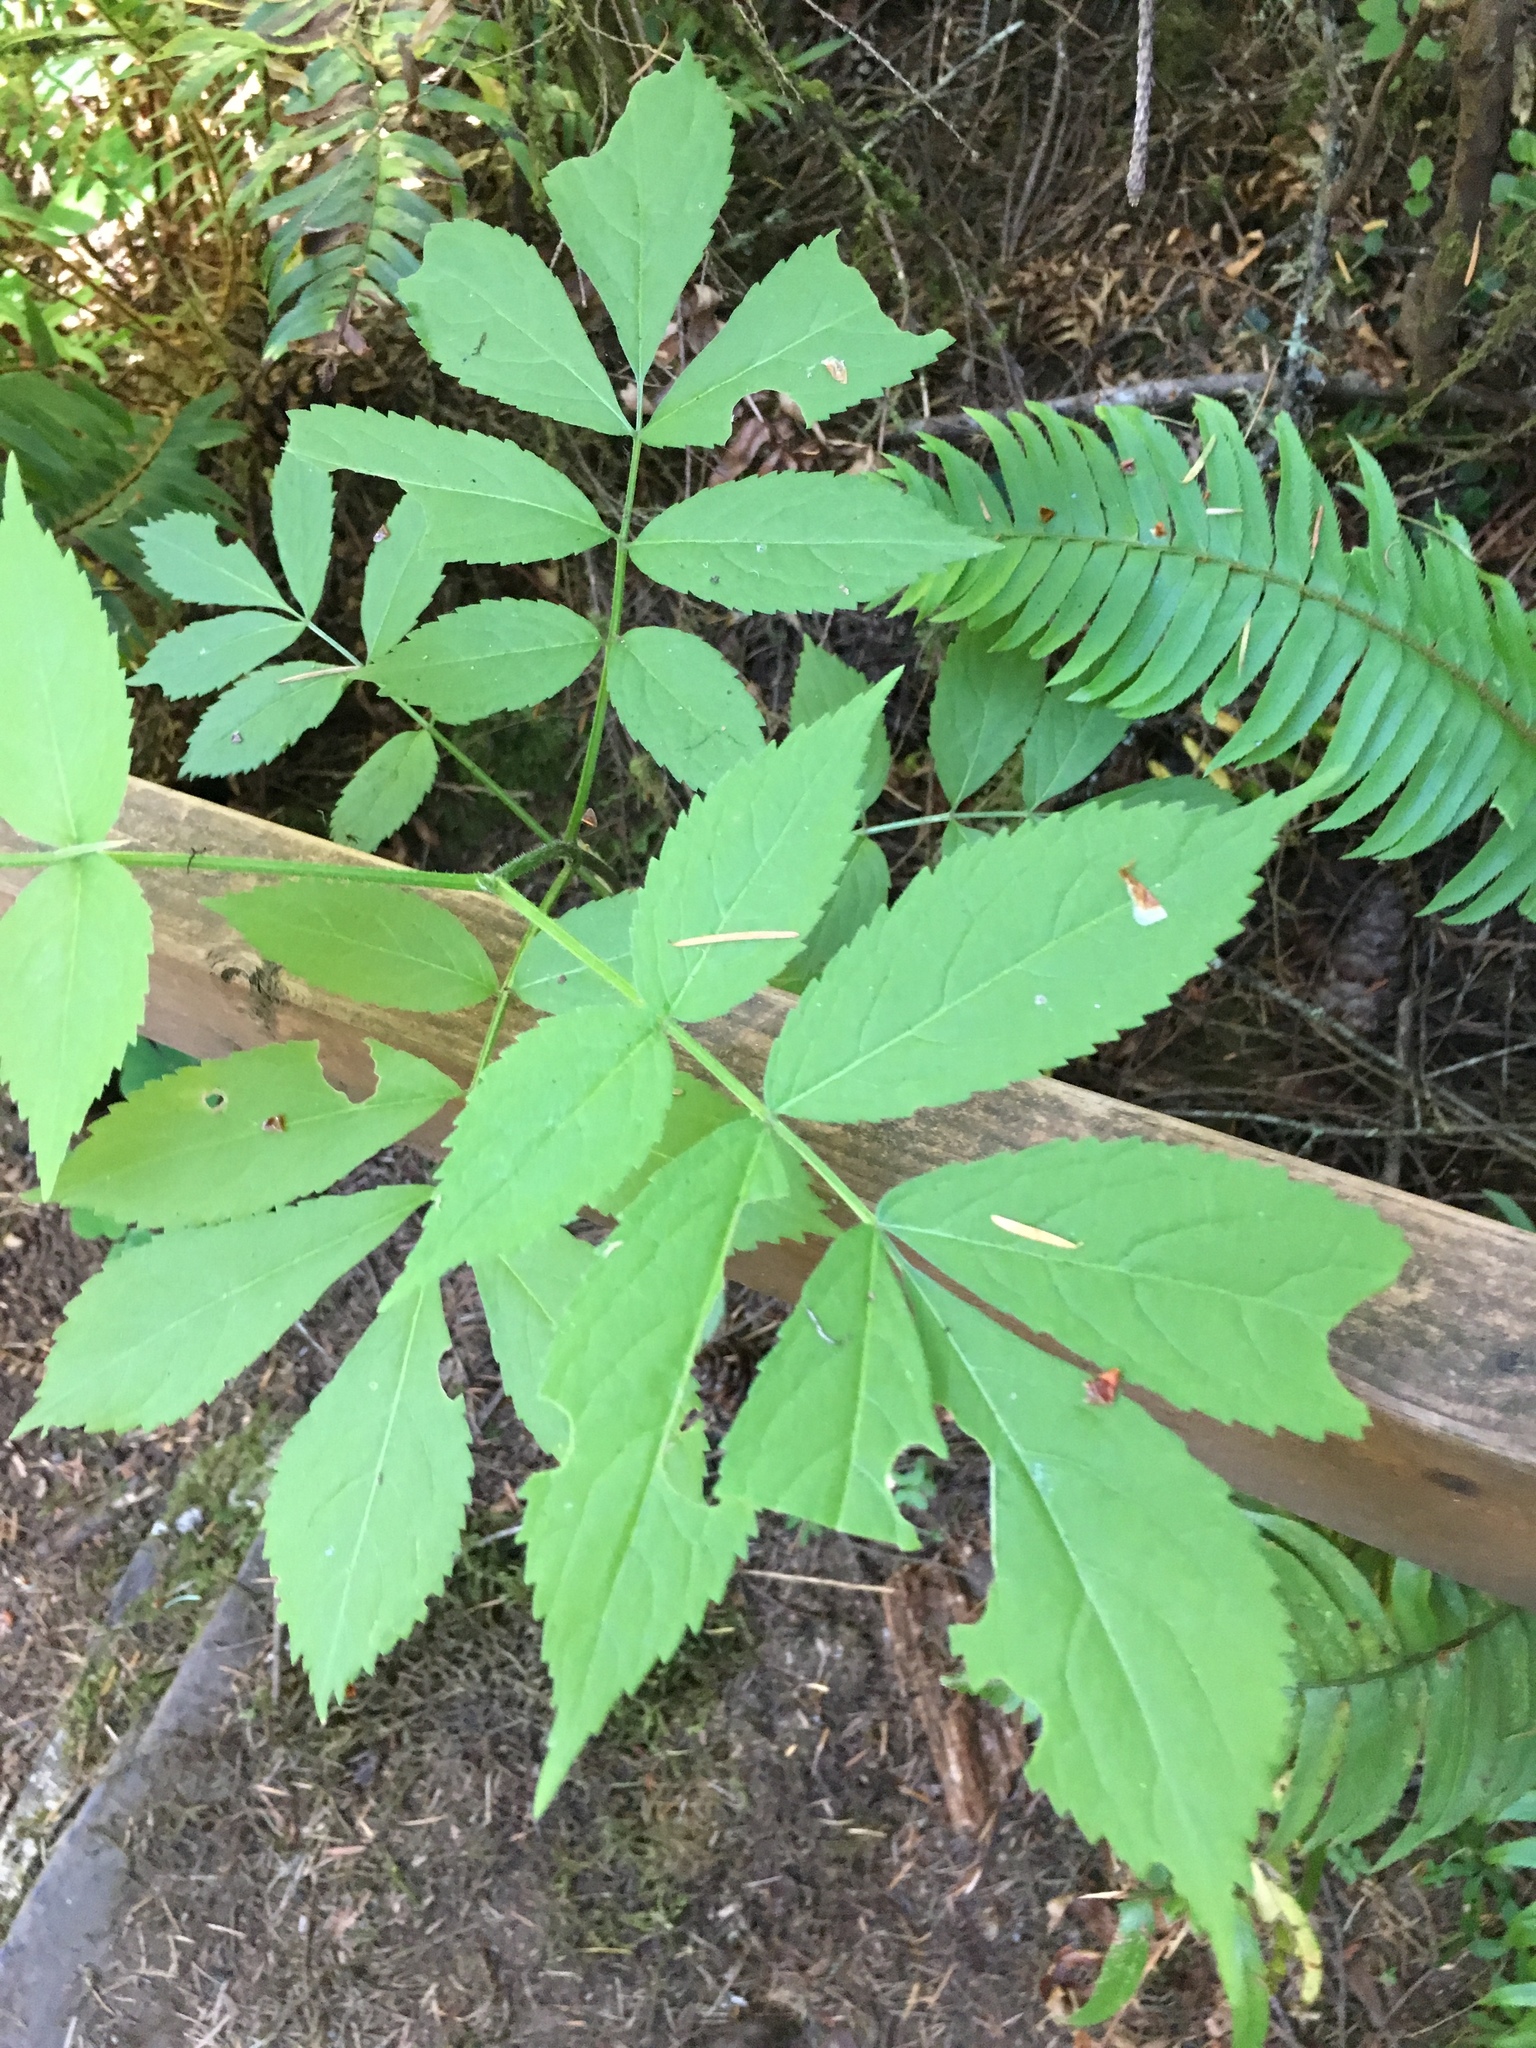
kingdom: Plantae
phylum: Tracheophyta
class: Magnoliopsida
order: Dipsacales
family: Viburnaceae
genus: Sambucus
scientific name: Sambucus racemosa
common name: Red-berried elder
